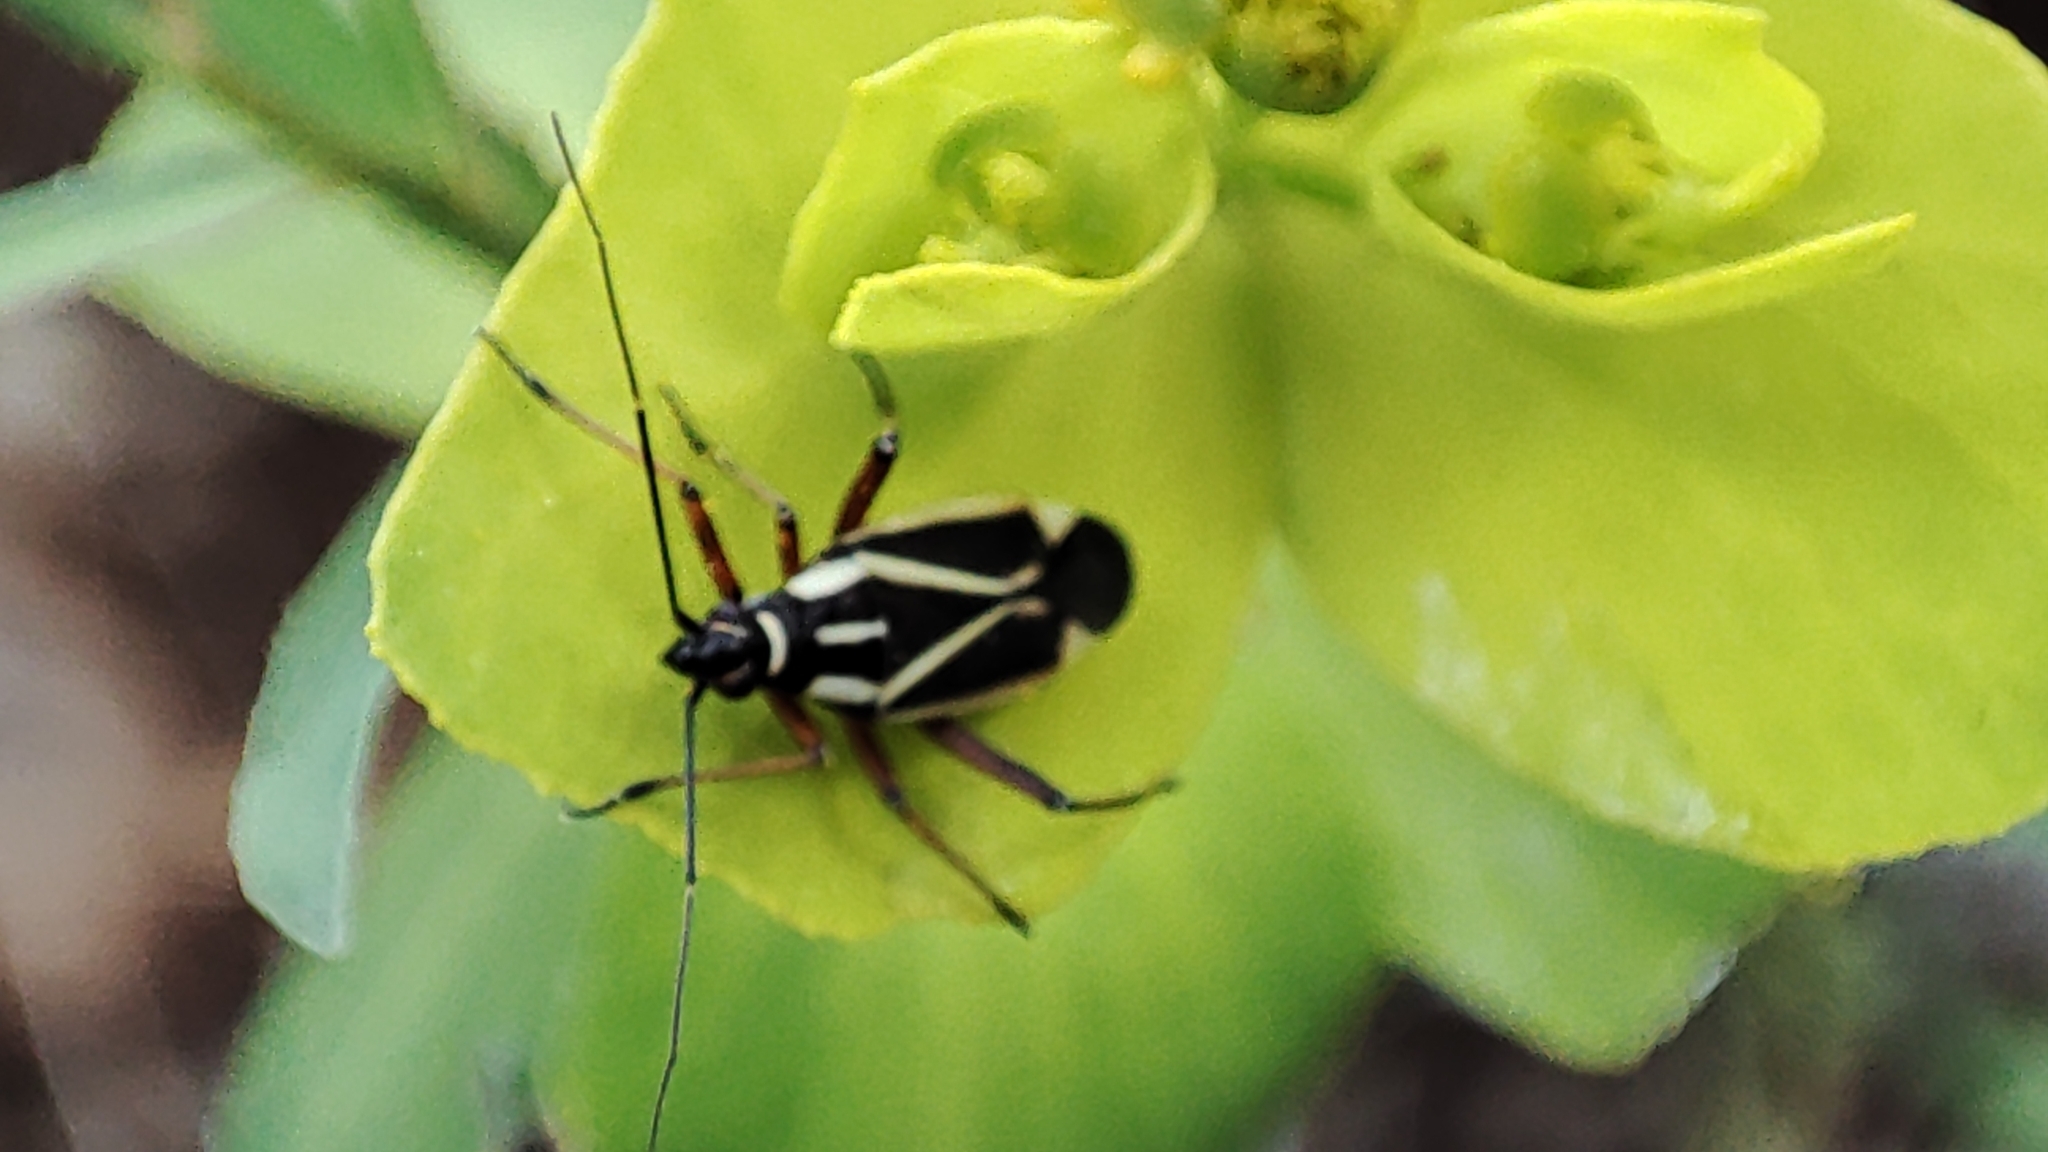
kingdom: Animalia
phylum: Arthropoda
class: Insecta
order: Hemiptera
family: Miridae
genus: Hadrodemus
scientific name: Hadrodemus m-flavum
